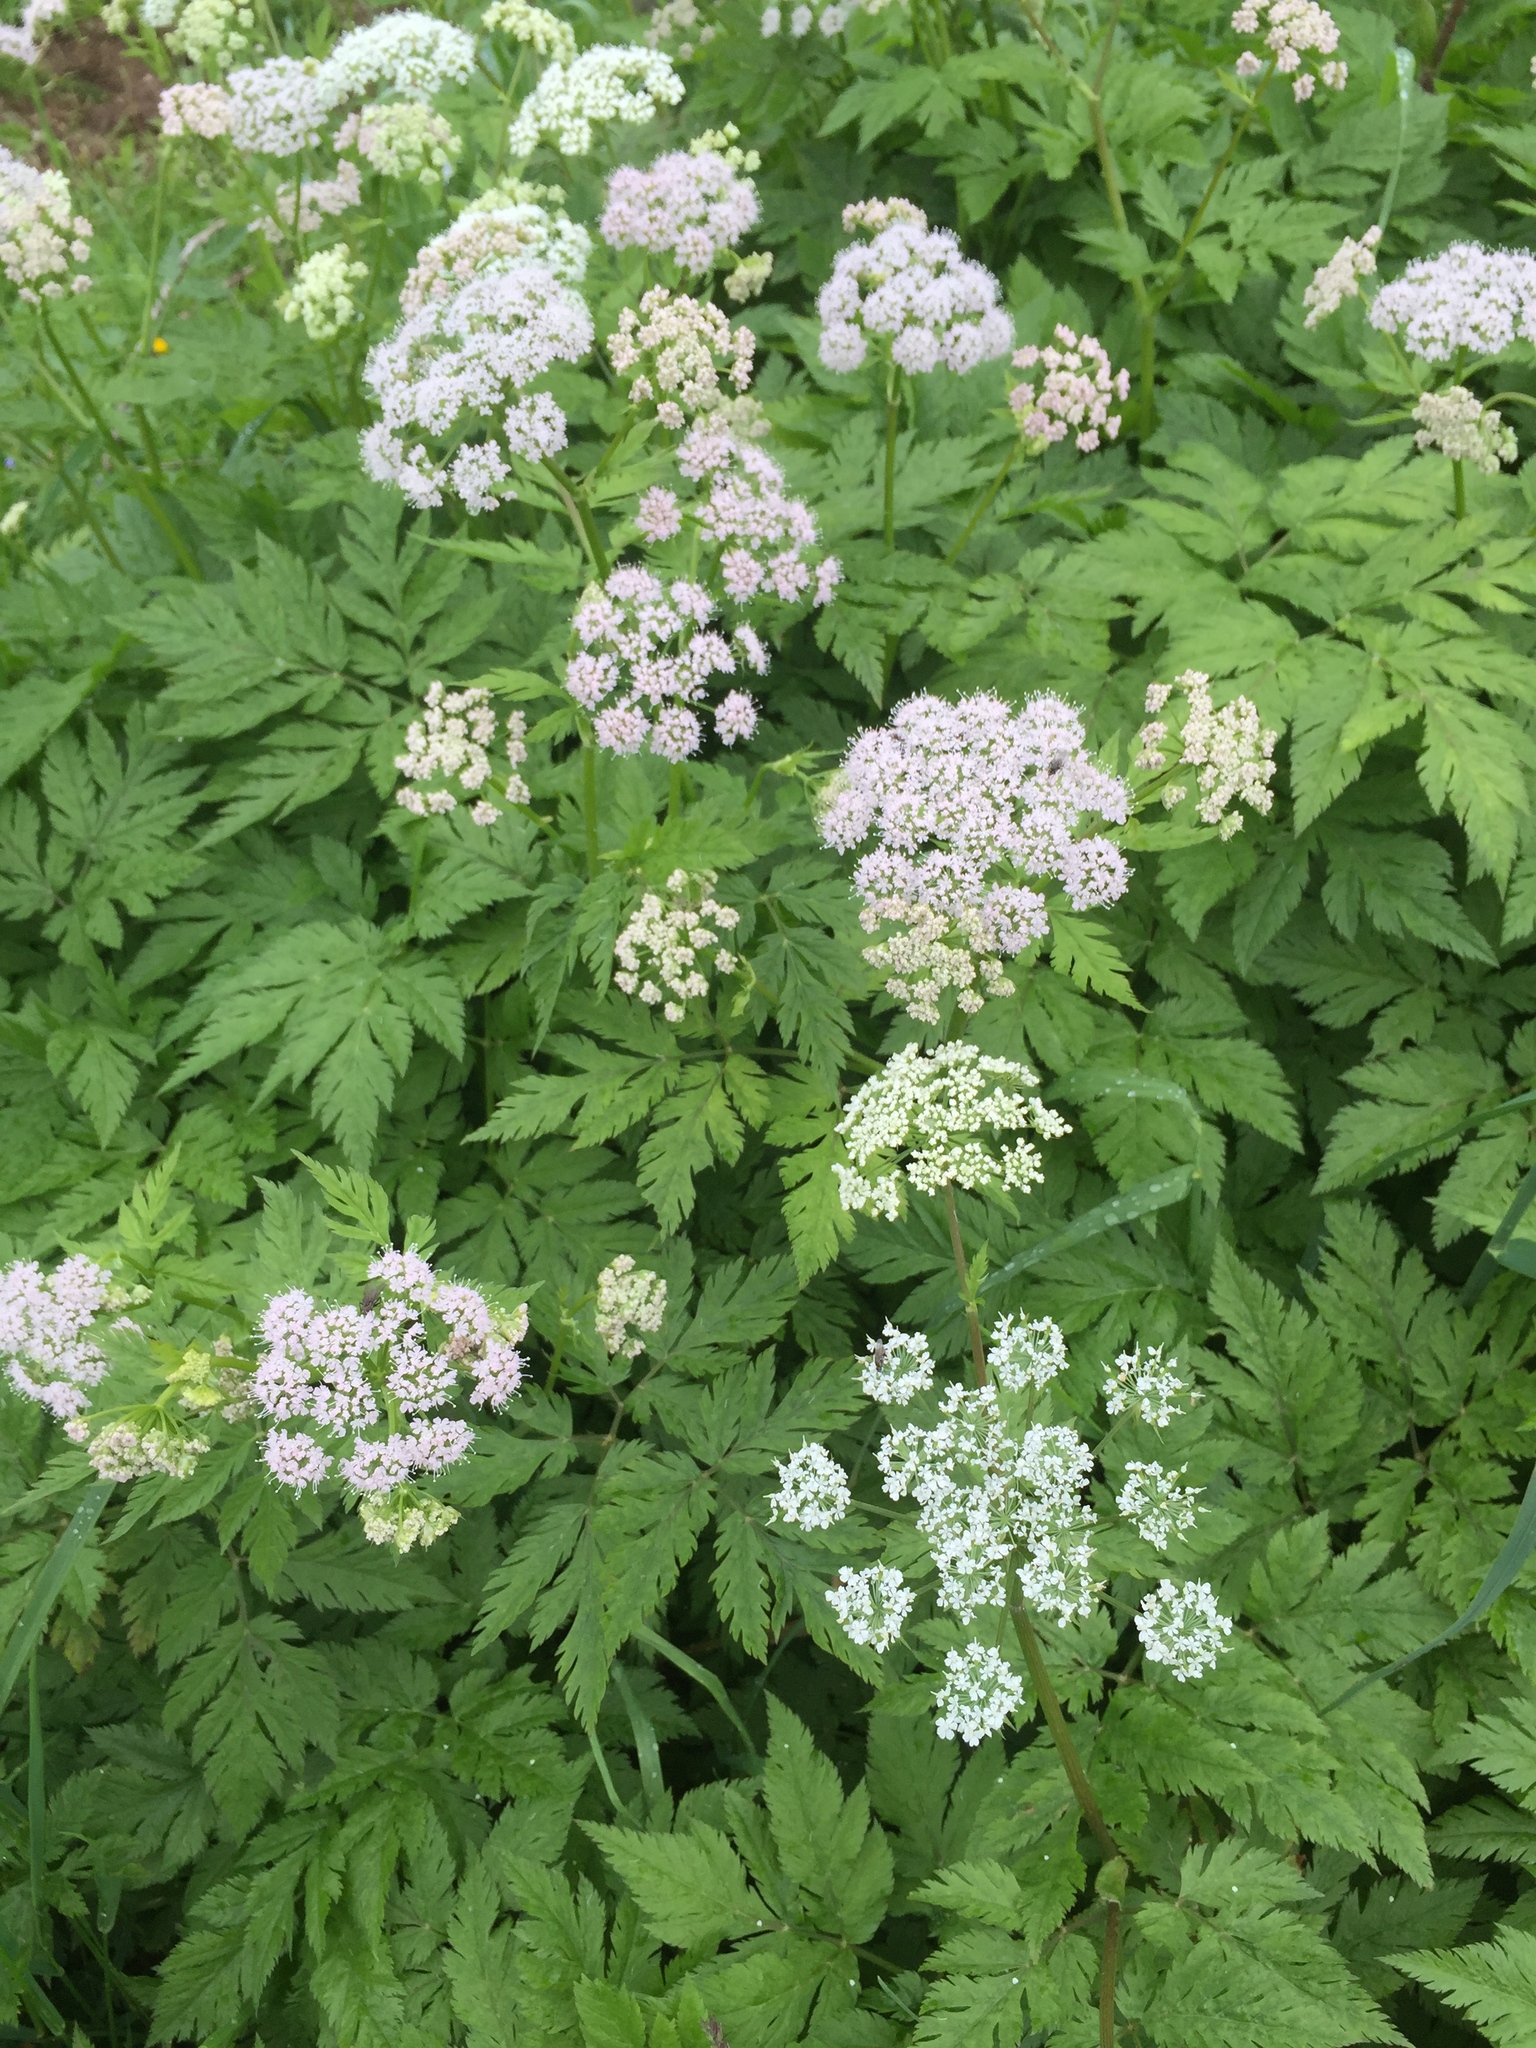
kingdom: Plantae
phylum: Tracheophyta
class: Magnoliopsida
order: Apiales
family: Apiaceae
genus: Chaerophyllum
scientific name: Chaerophyllum hirsutum
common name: Hairy chervil
